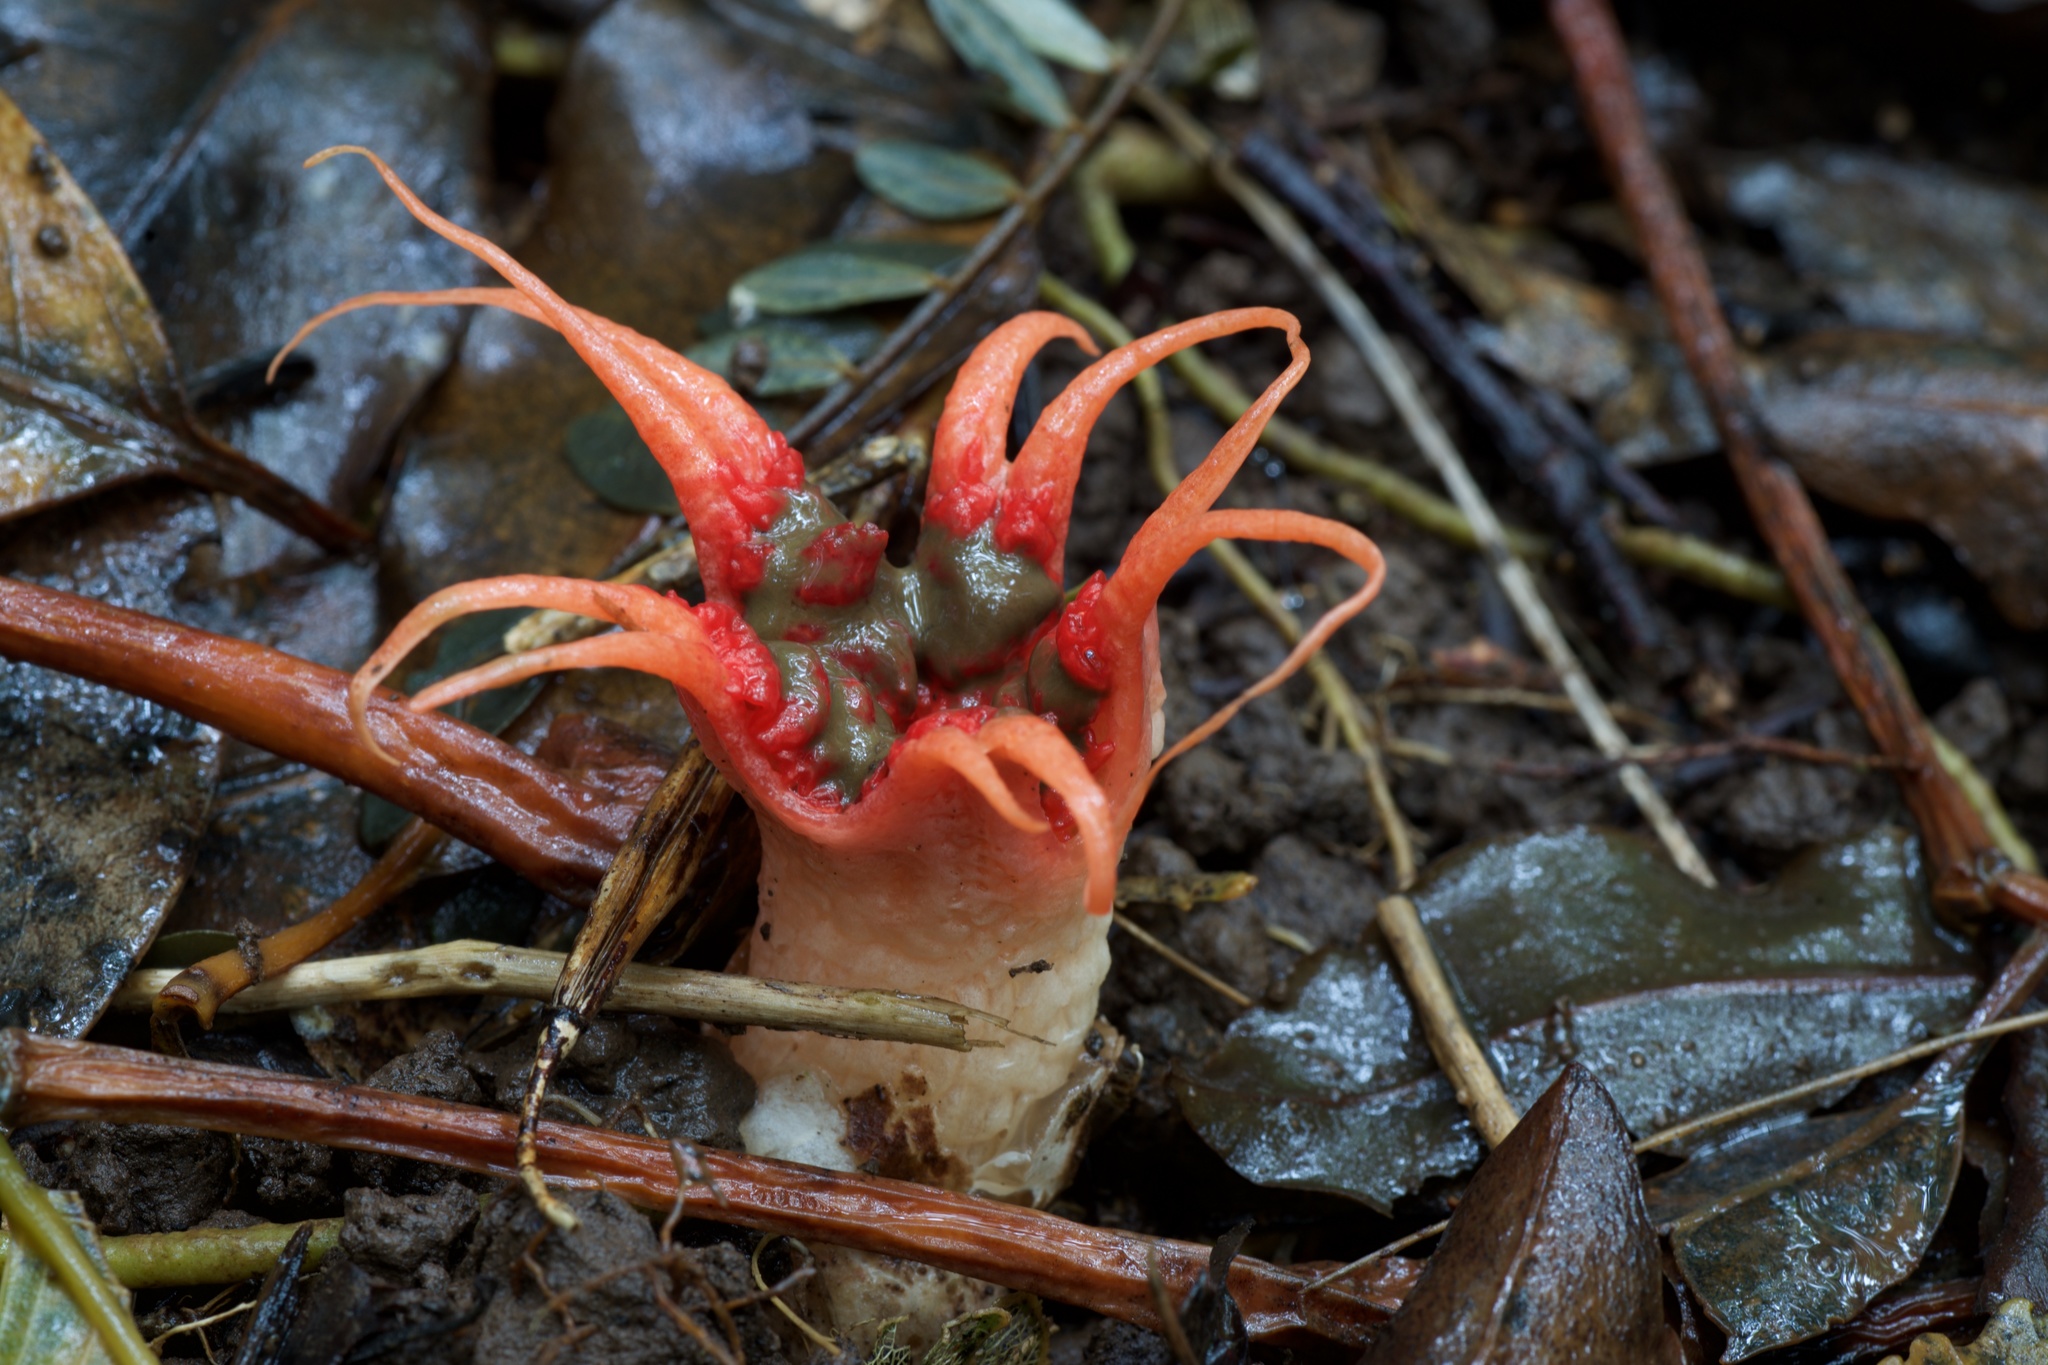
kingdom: Fungi
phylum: Basidiomycota
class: Agaricomycetes
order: Phallales
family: Phallaceae
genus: Aseroe
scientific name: Aseroe rubra
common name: Starfish fungus
